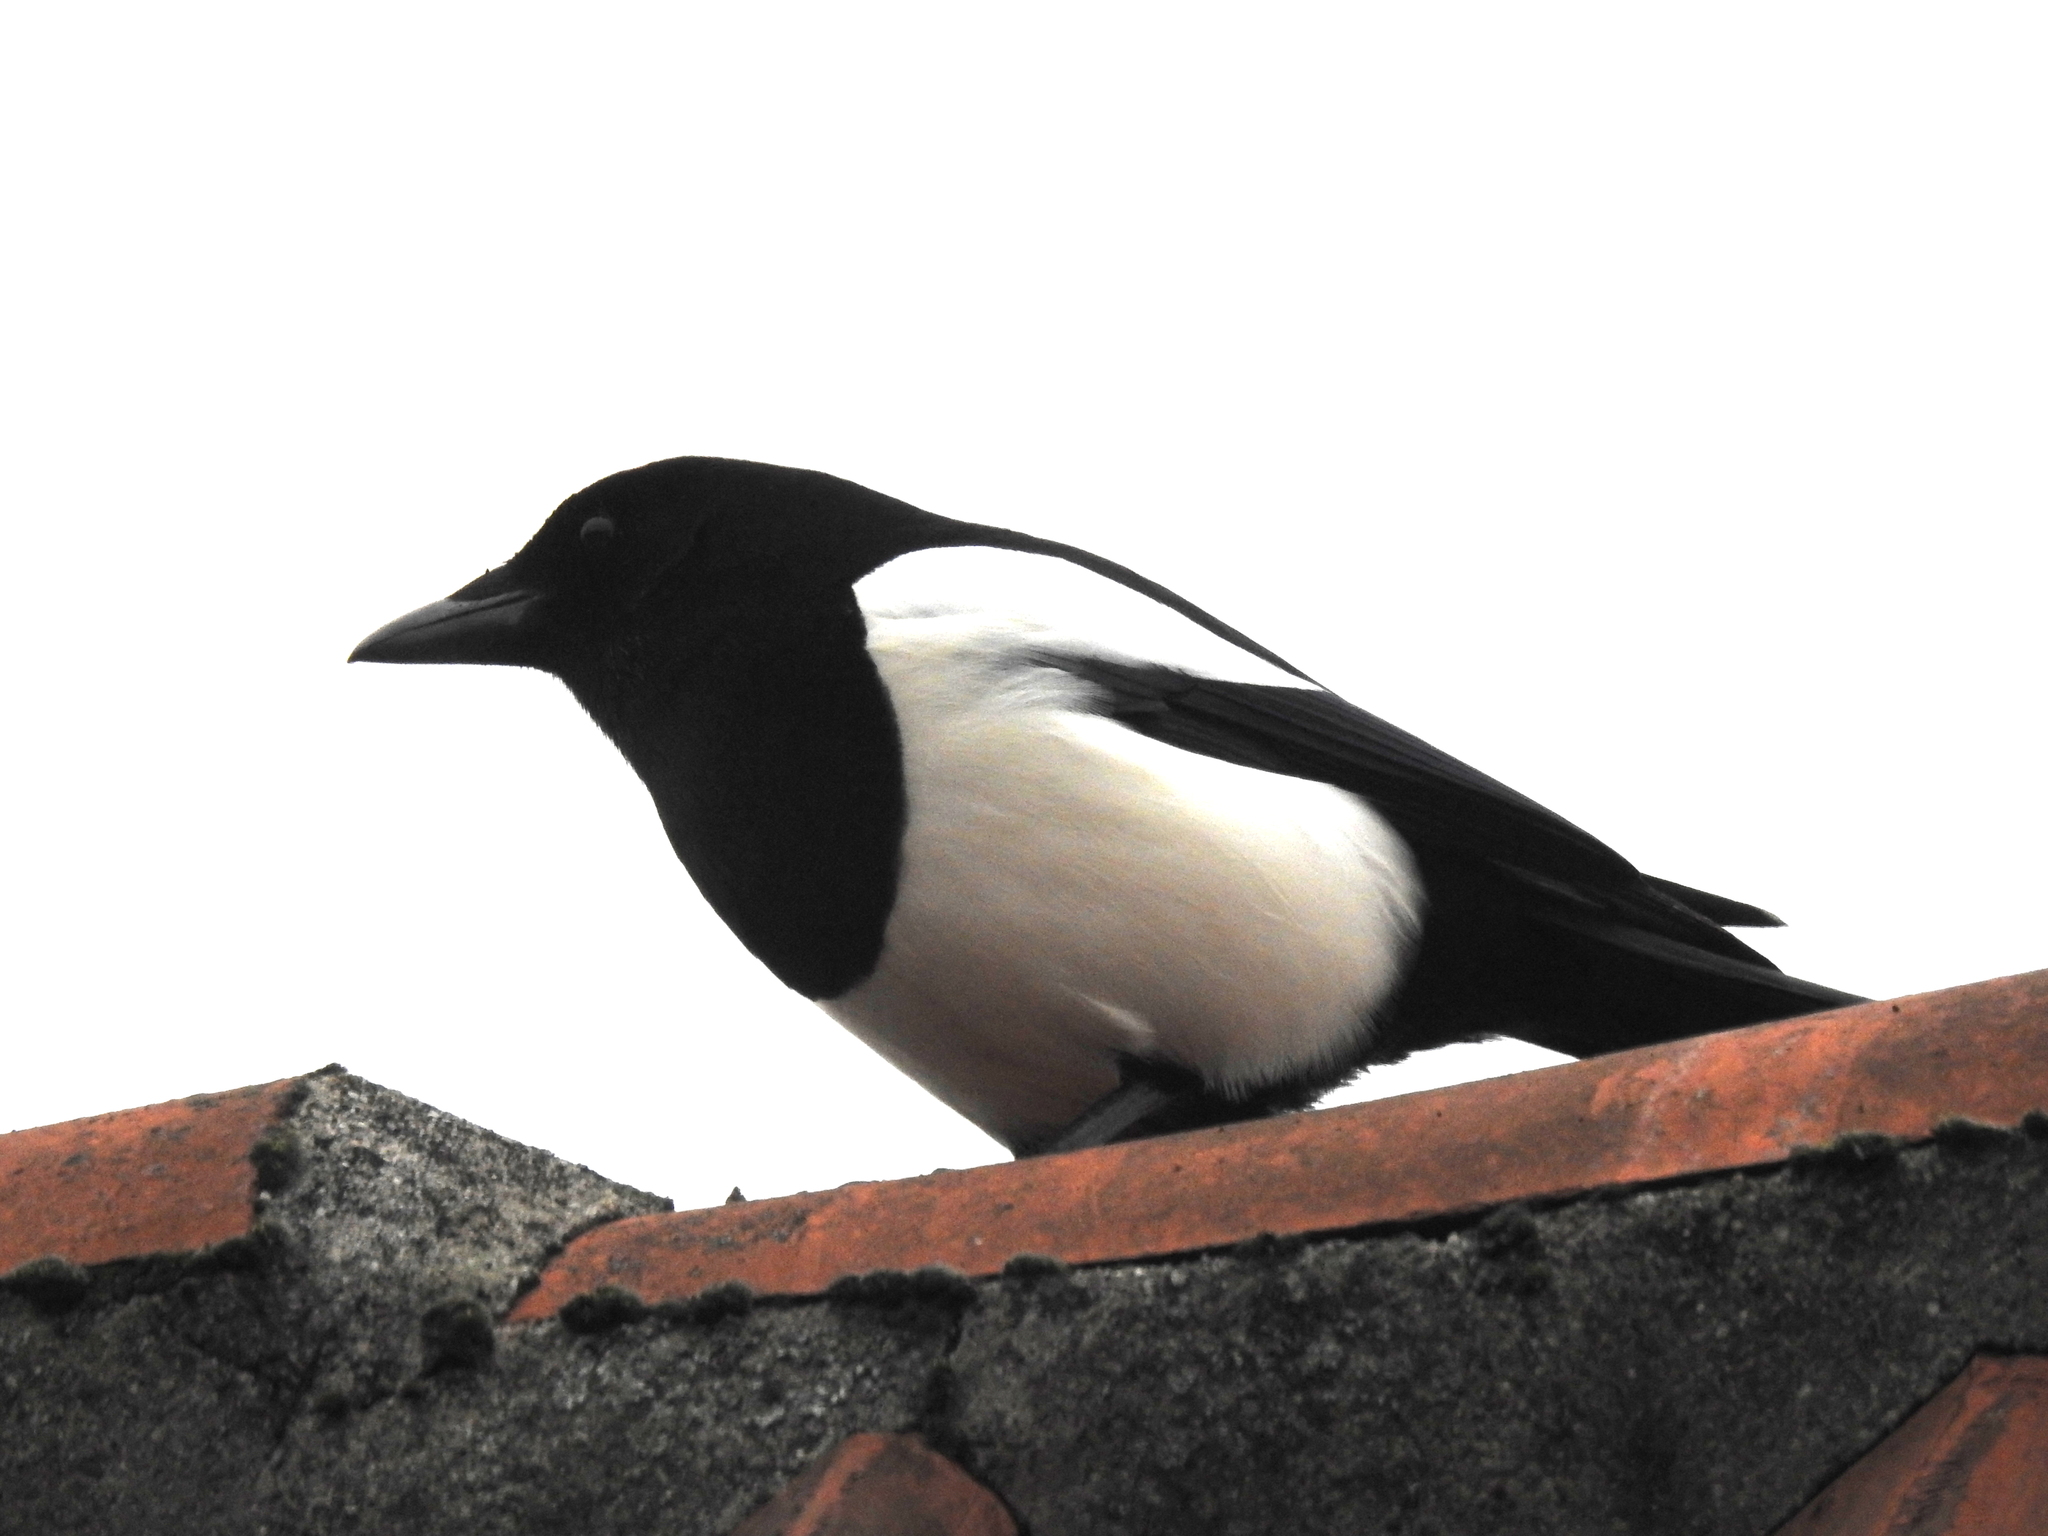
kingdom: Animalia
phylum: Chordata
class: Aves
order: Passeriformes
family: Corvidae
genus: Pica
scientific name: Pica pica
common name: Eurasian magpie
